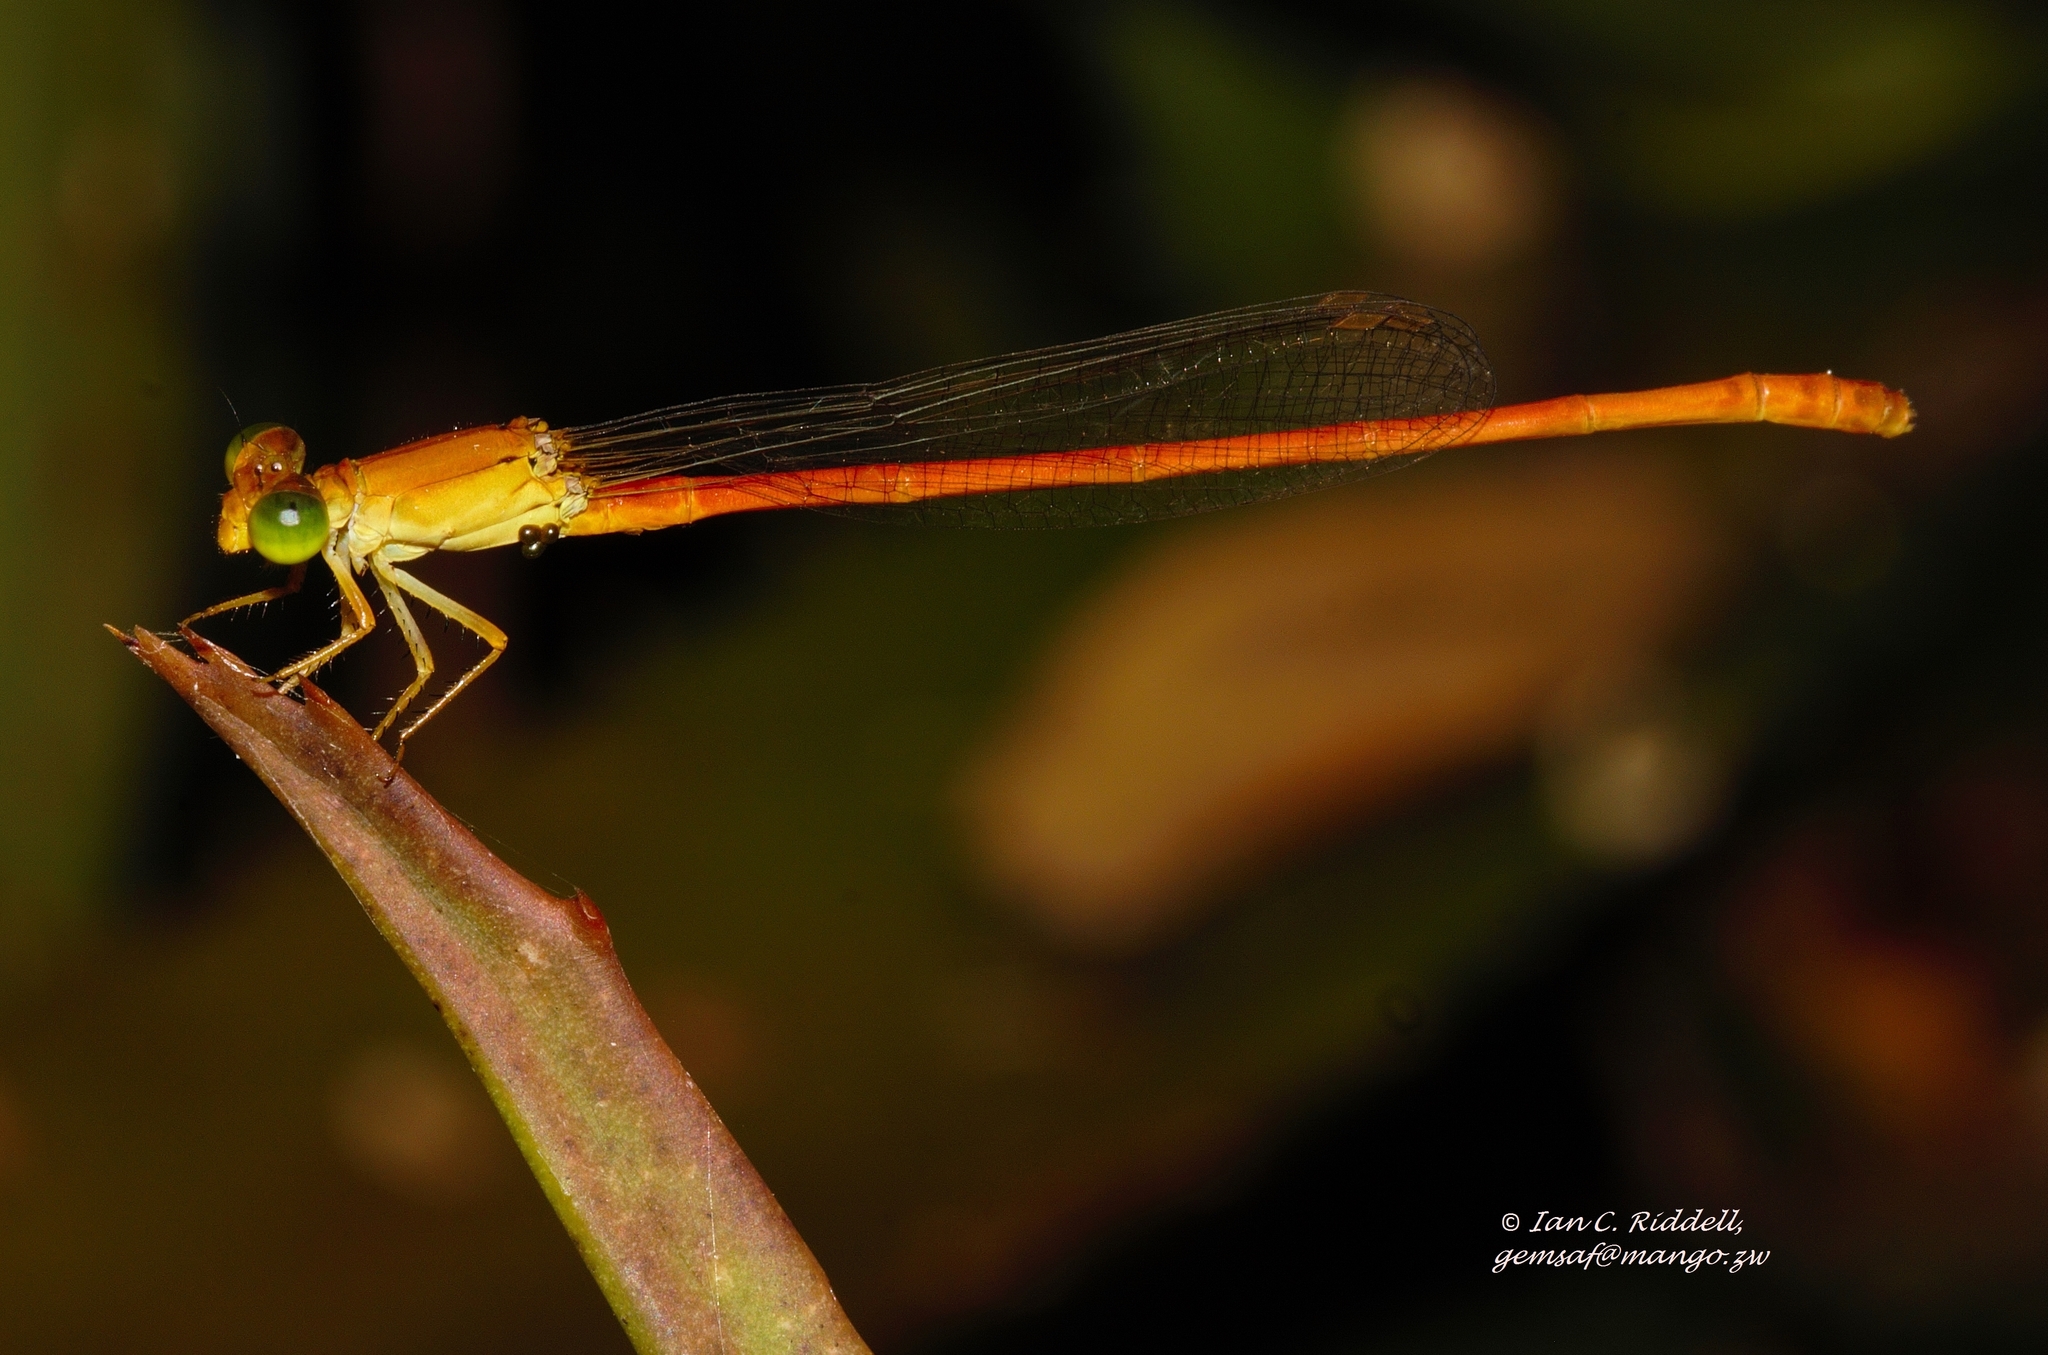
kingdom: Animalia
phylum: Arthropoda
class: Insecta
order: Odonata
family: Coenagrionidae
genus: Ceriagrion
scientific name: Ceriagrion glabrum
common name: Common pond damsel
